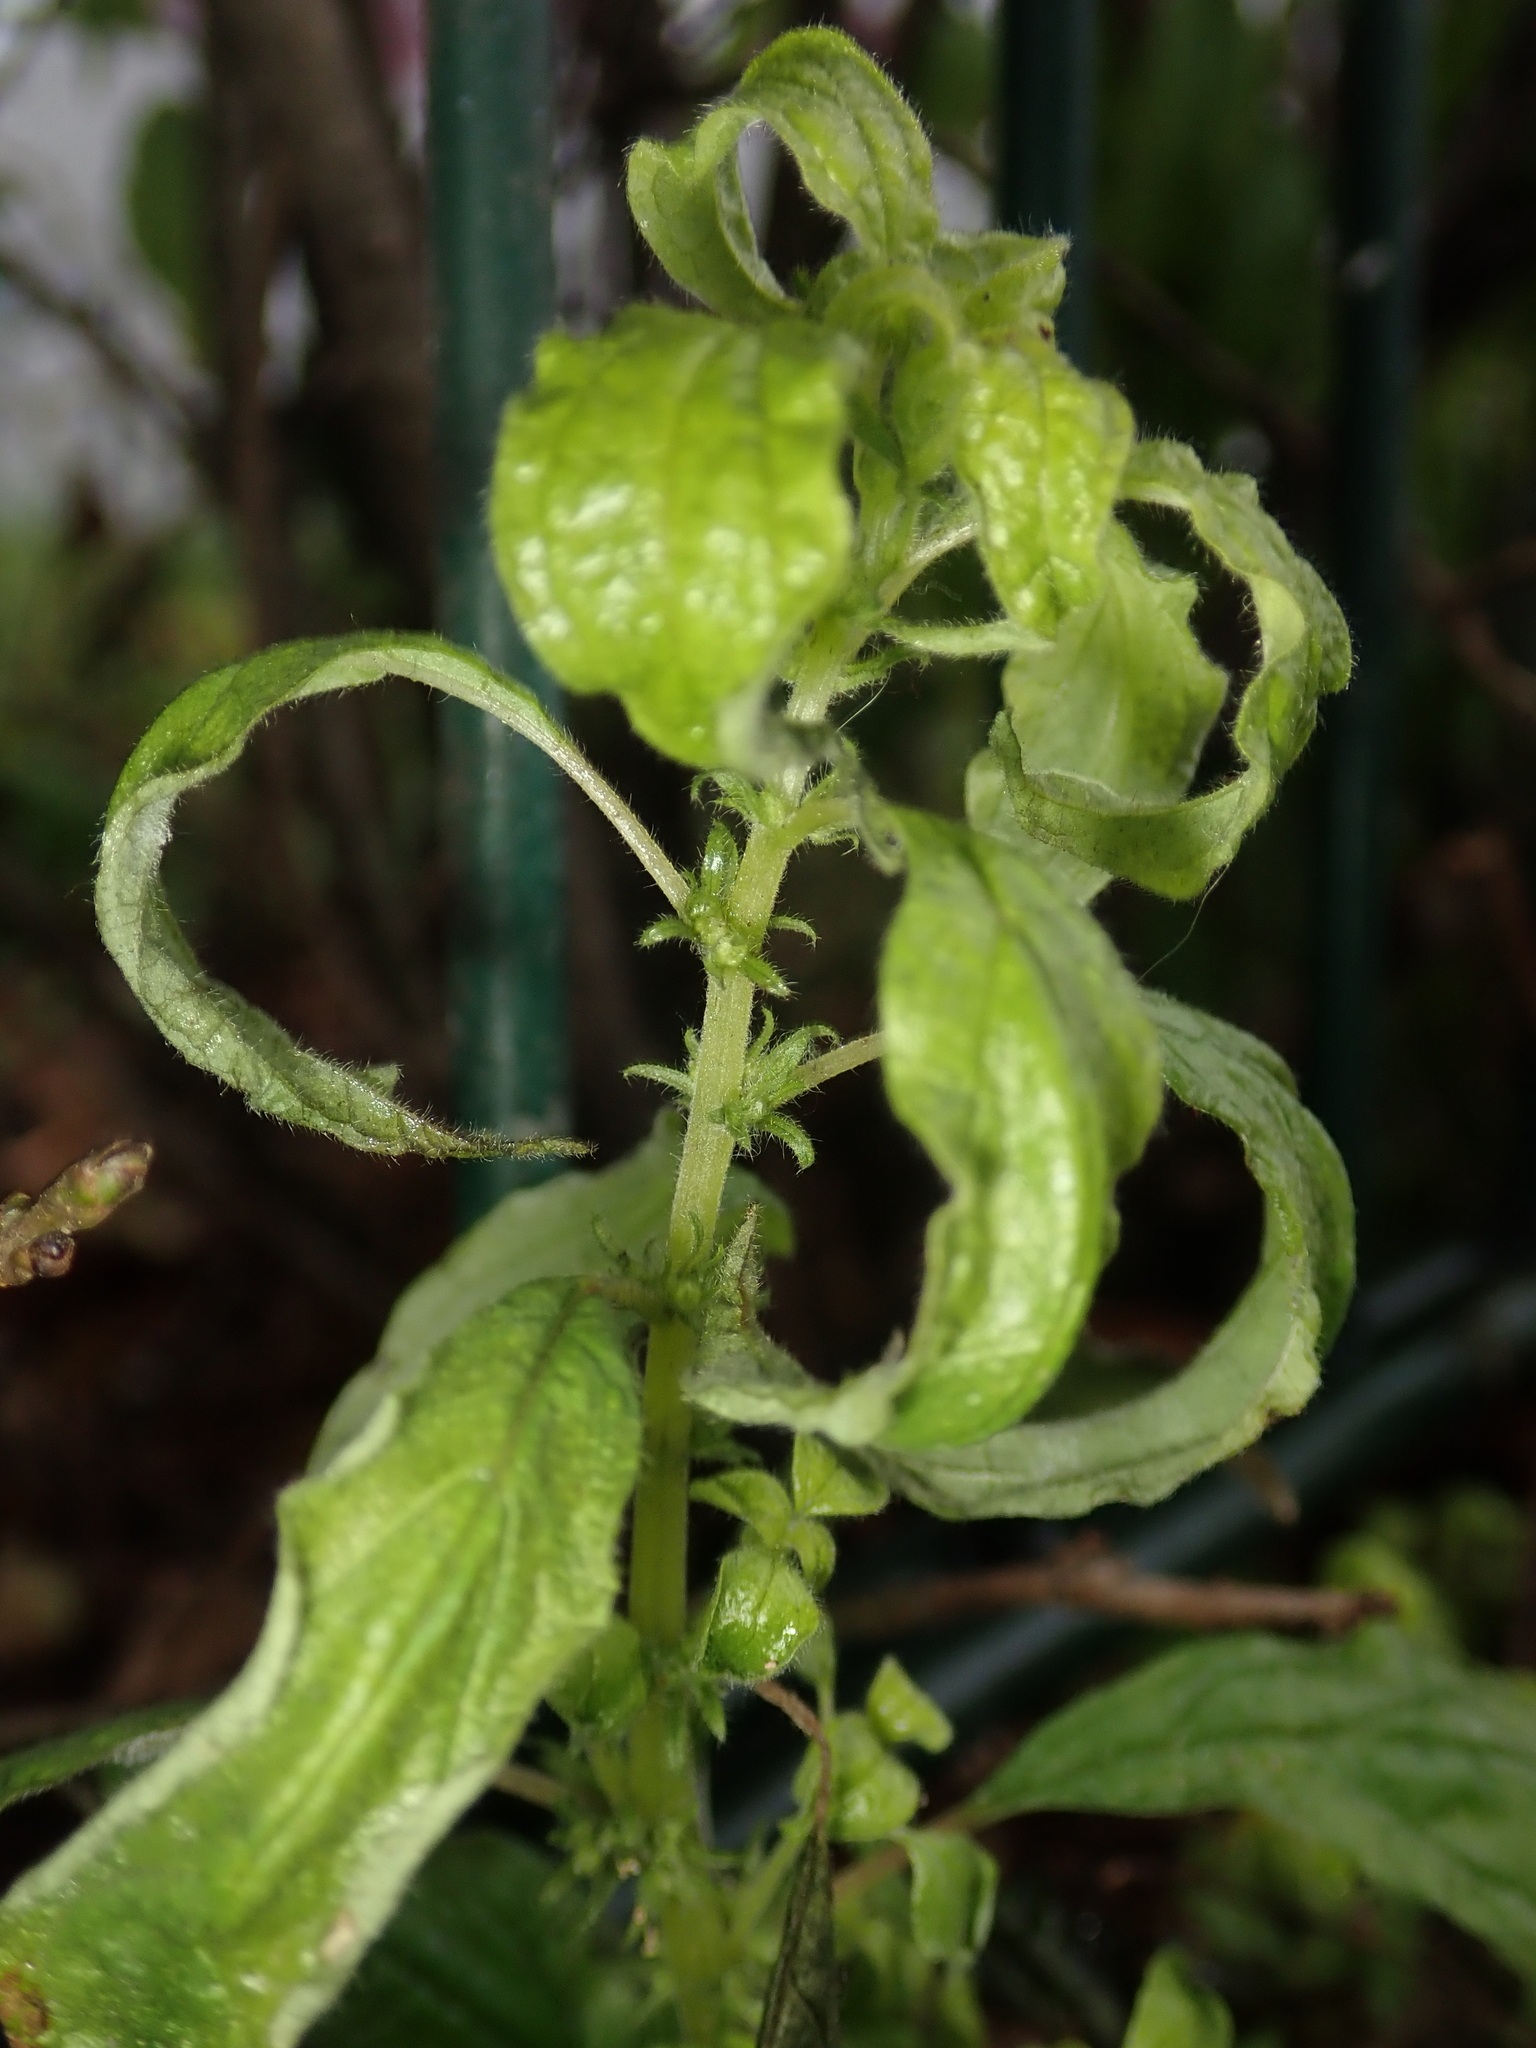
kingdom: Plantae
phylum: Tracheophyta
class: Magnoliopsida
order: Rosales
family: Urticaceae
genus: Parietaria
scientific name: Parietaria pensylvanica
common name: Pennsylvania pellitory
